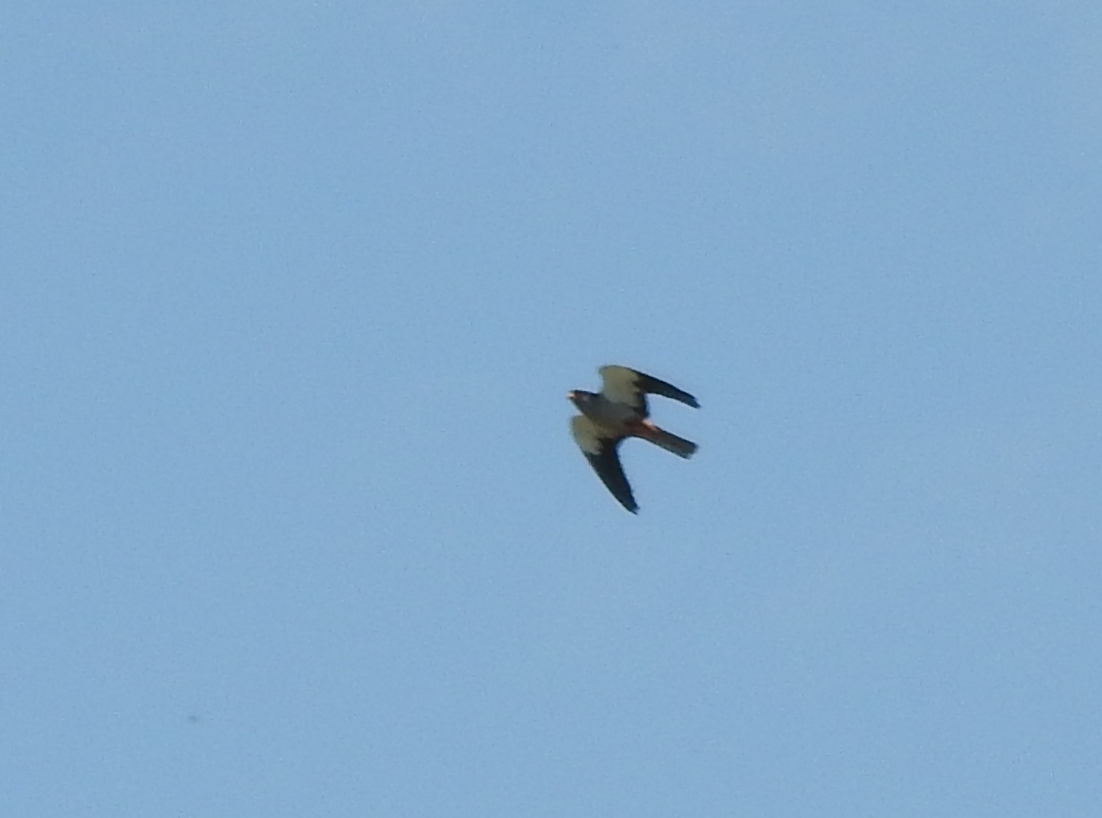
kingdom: Animalia
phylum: Chordata
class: Aves
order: Falconiformes
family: Falconidae
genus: Falco
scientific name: Falco amurensis
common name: Amur falcon
